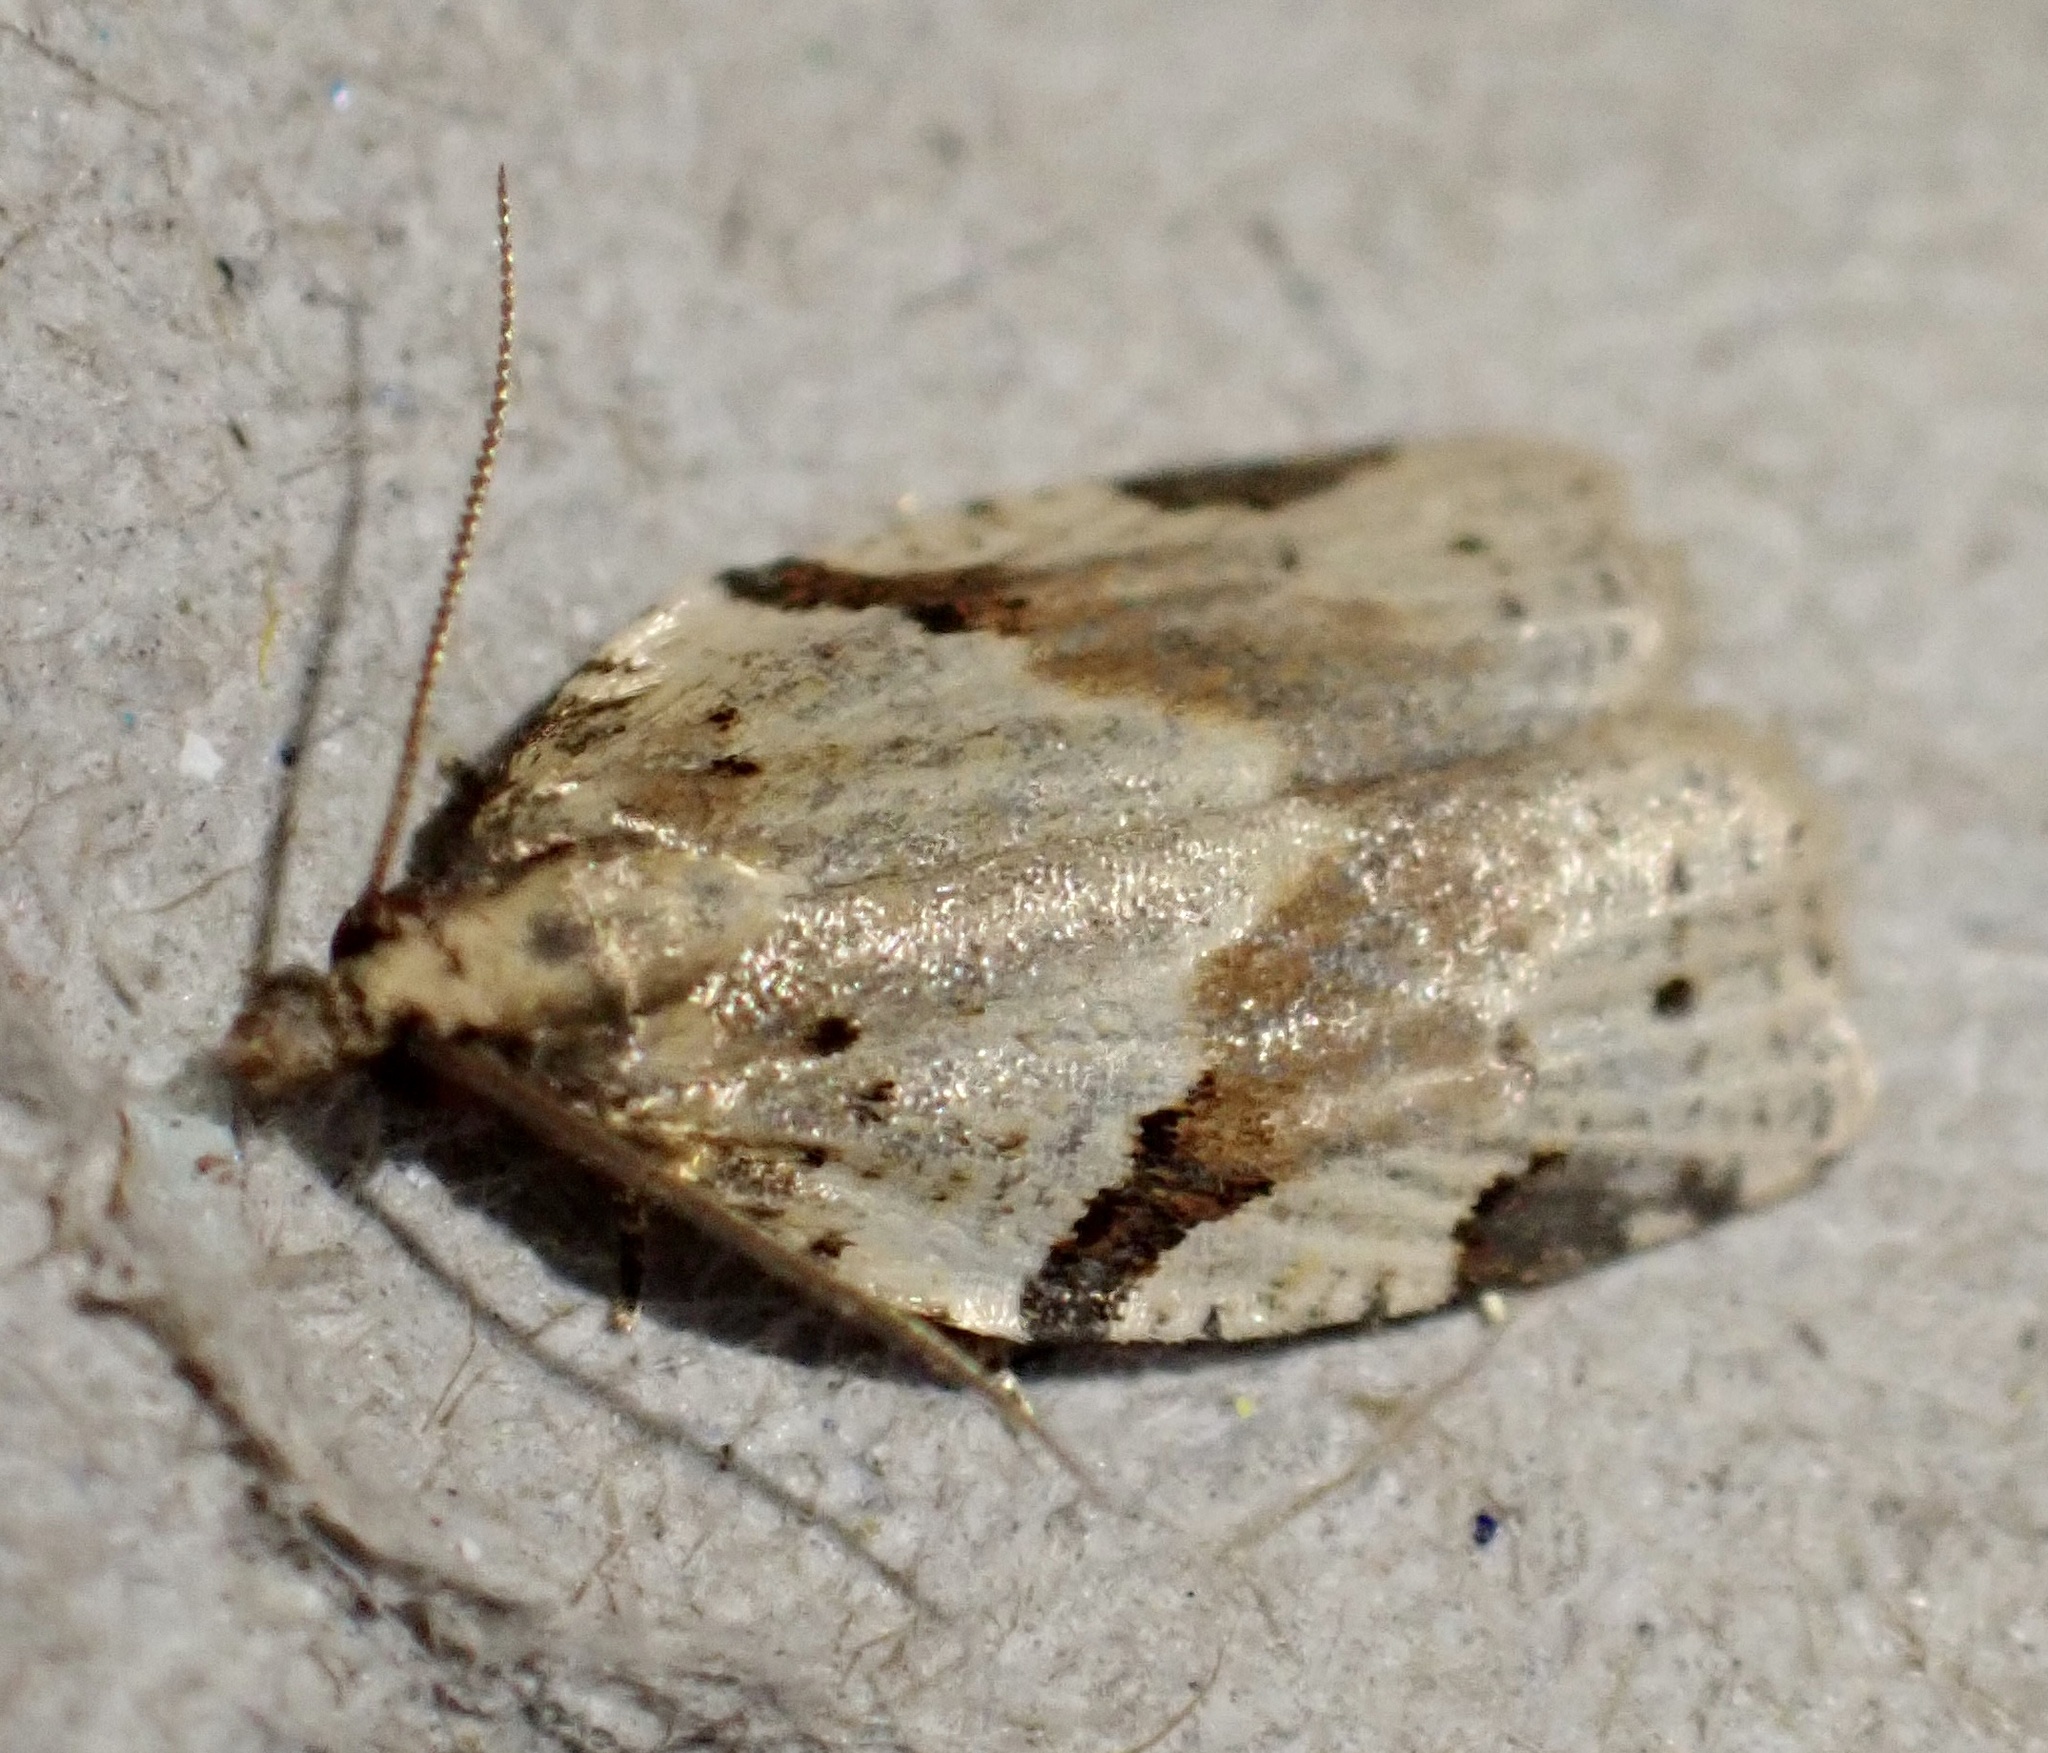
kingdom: Animalia
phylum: Arthropoda
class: Insecta
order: Lepidoptera
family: Tortricidae
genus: Clepsis
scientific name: Clepsis spectrana
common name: Cyclamen tortrix
